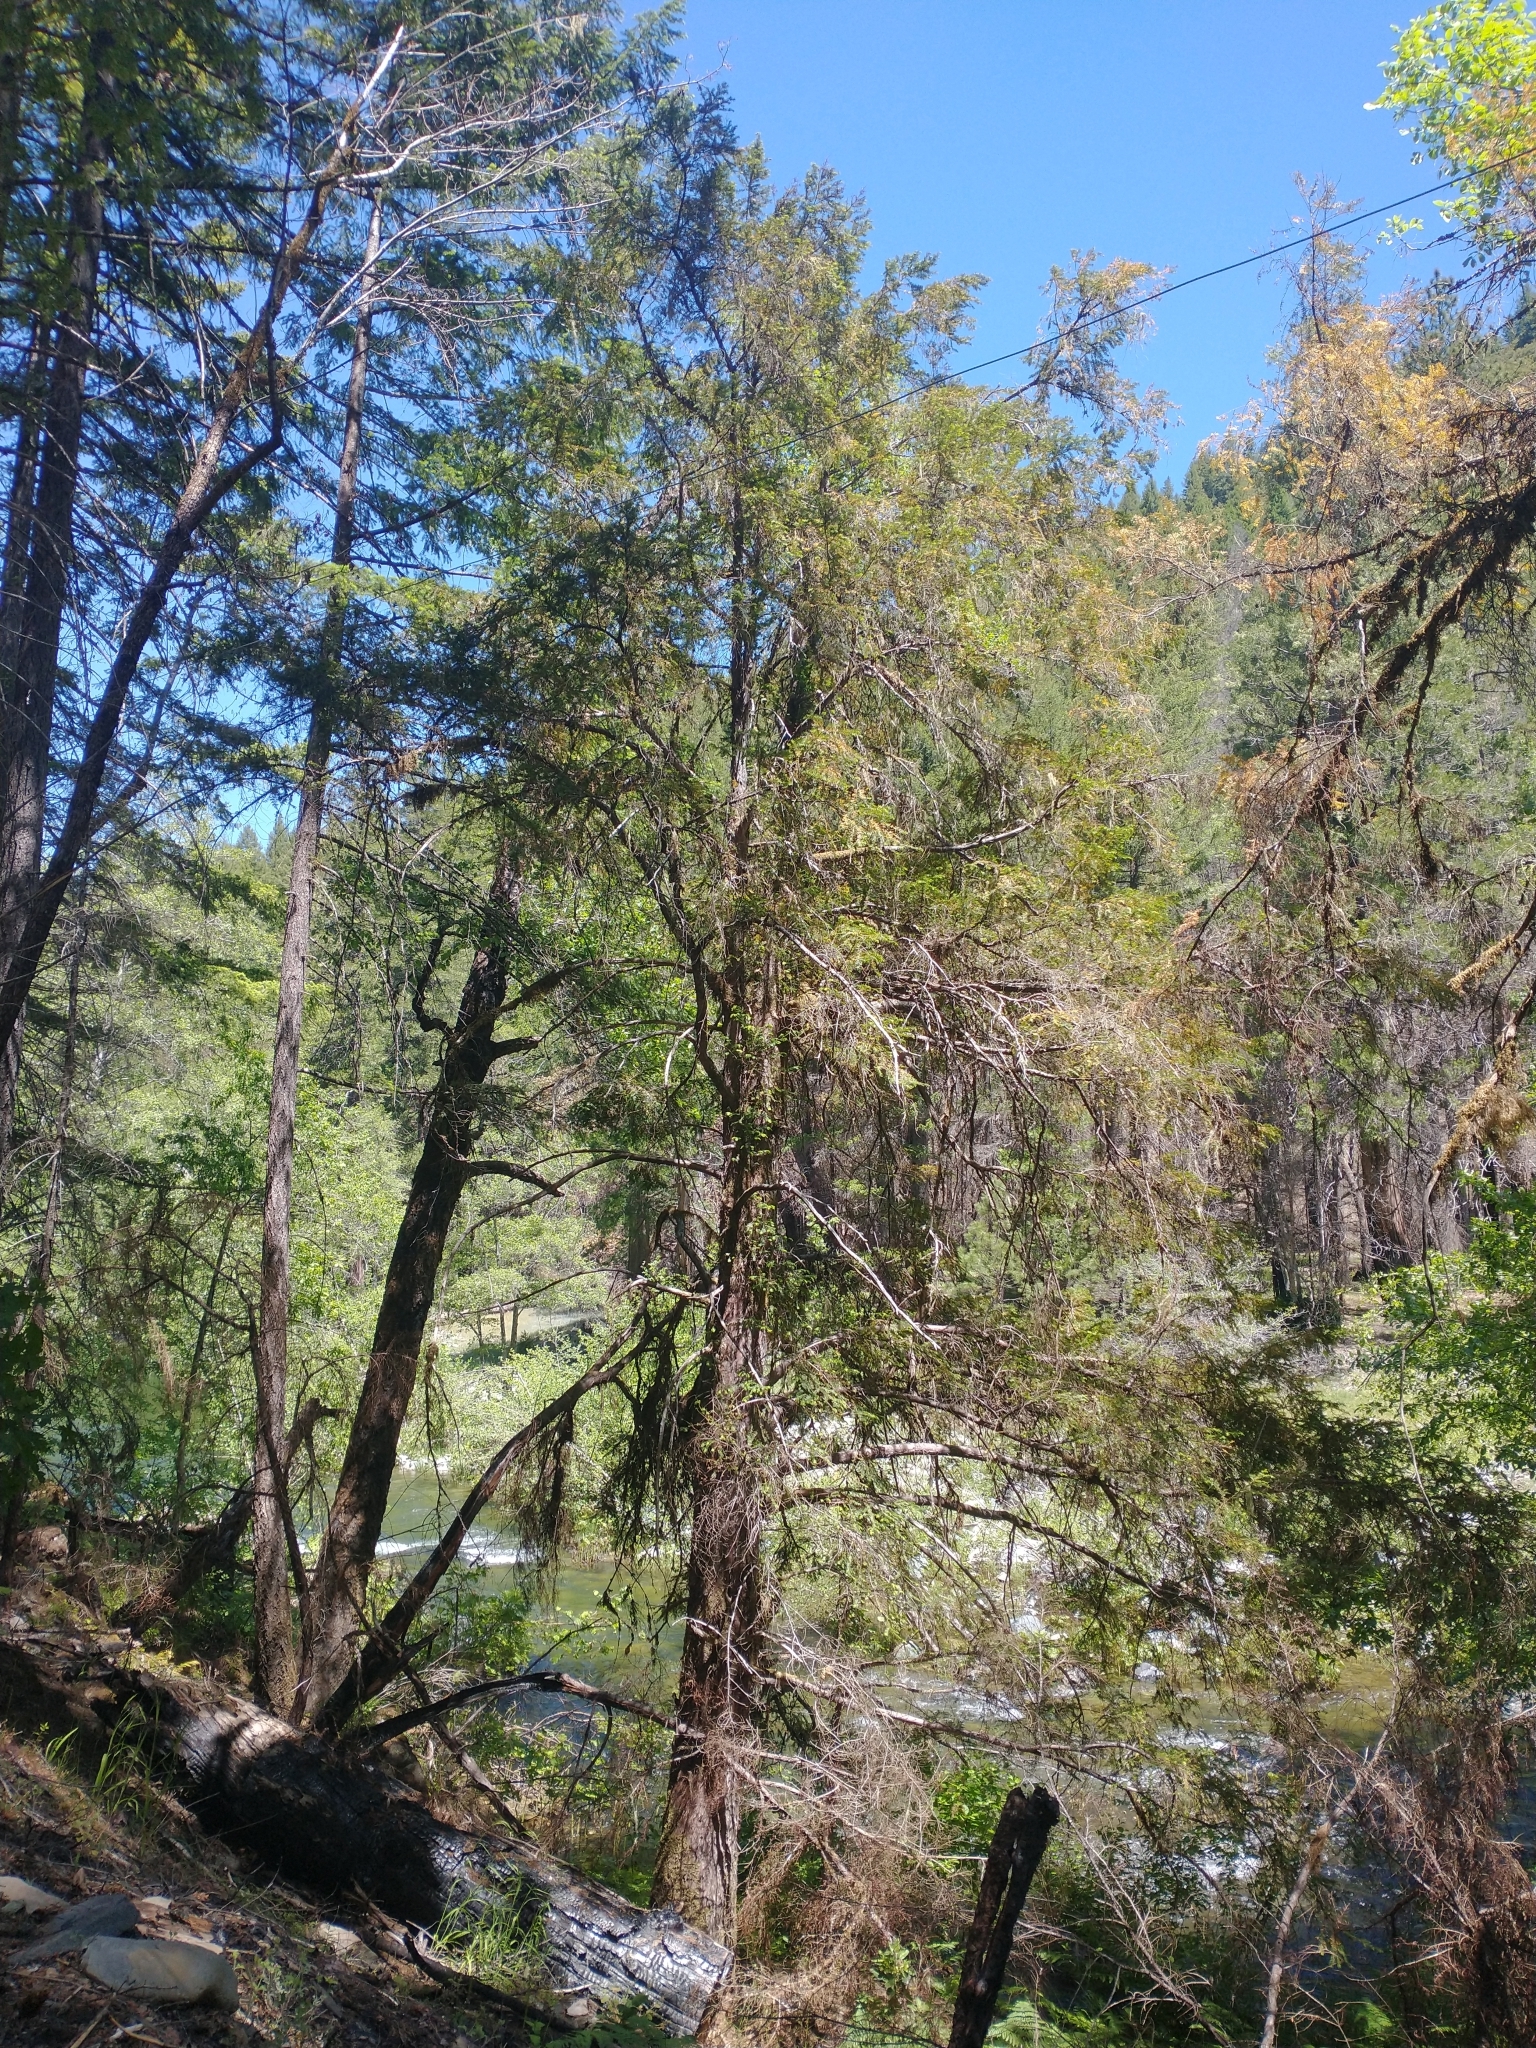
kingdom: Plantae
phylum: Tracheophyta
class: Pinopsida
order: Pinales
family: Taxaceae
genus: Taxus
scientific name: Taxus brevifolia
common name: Pacific yew
